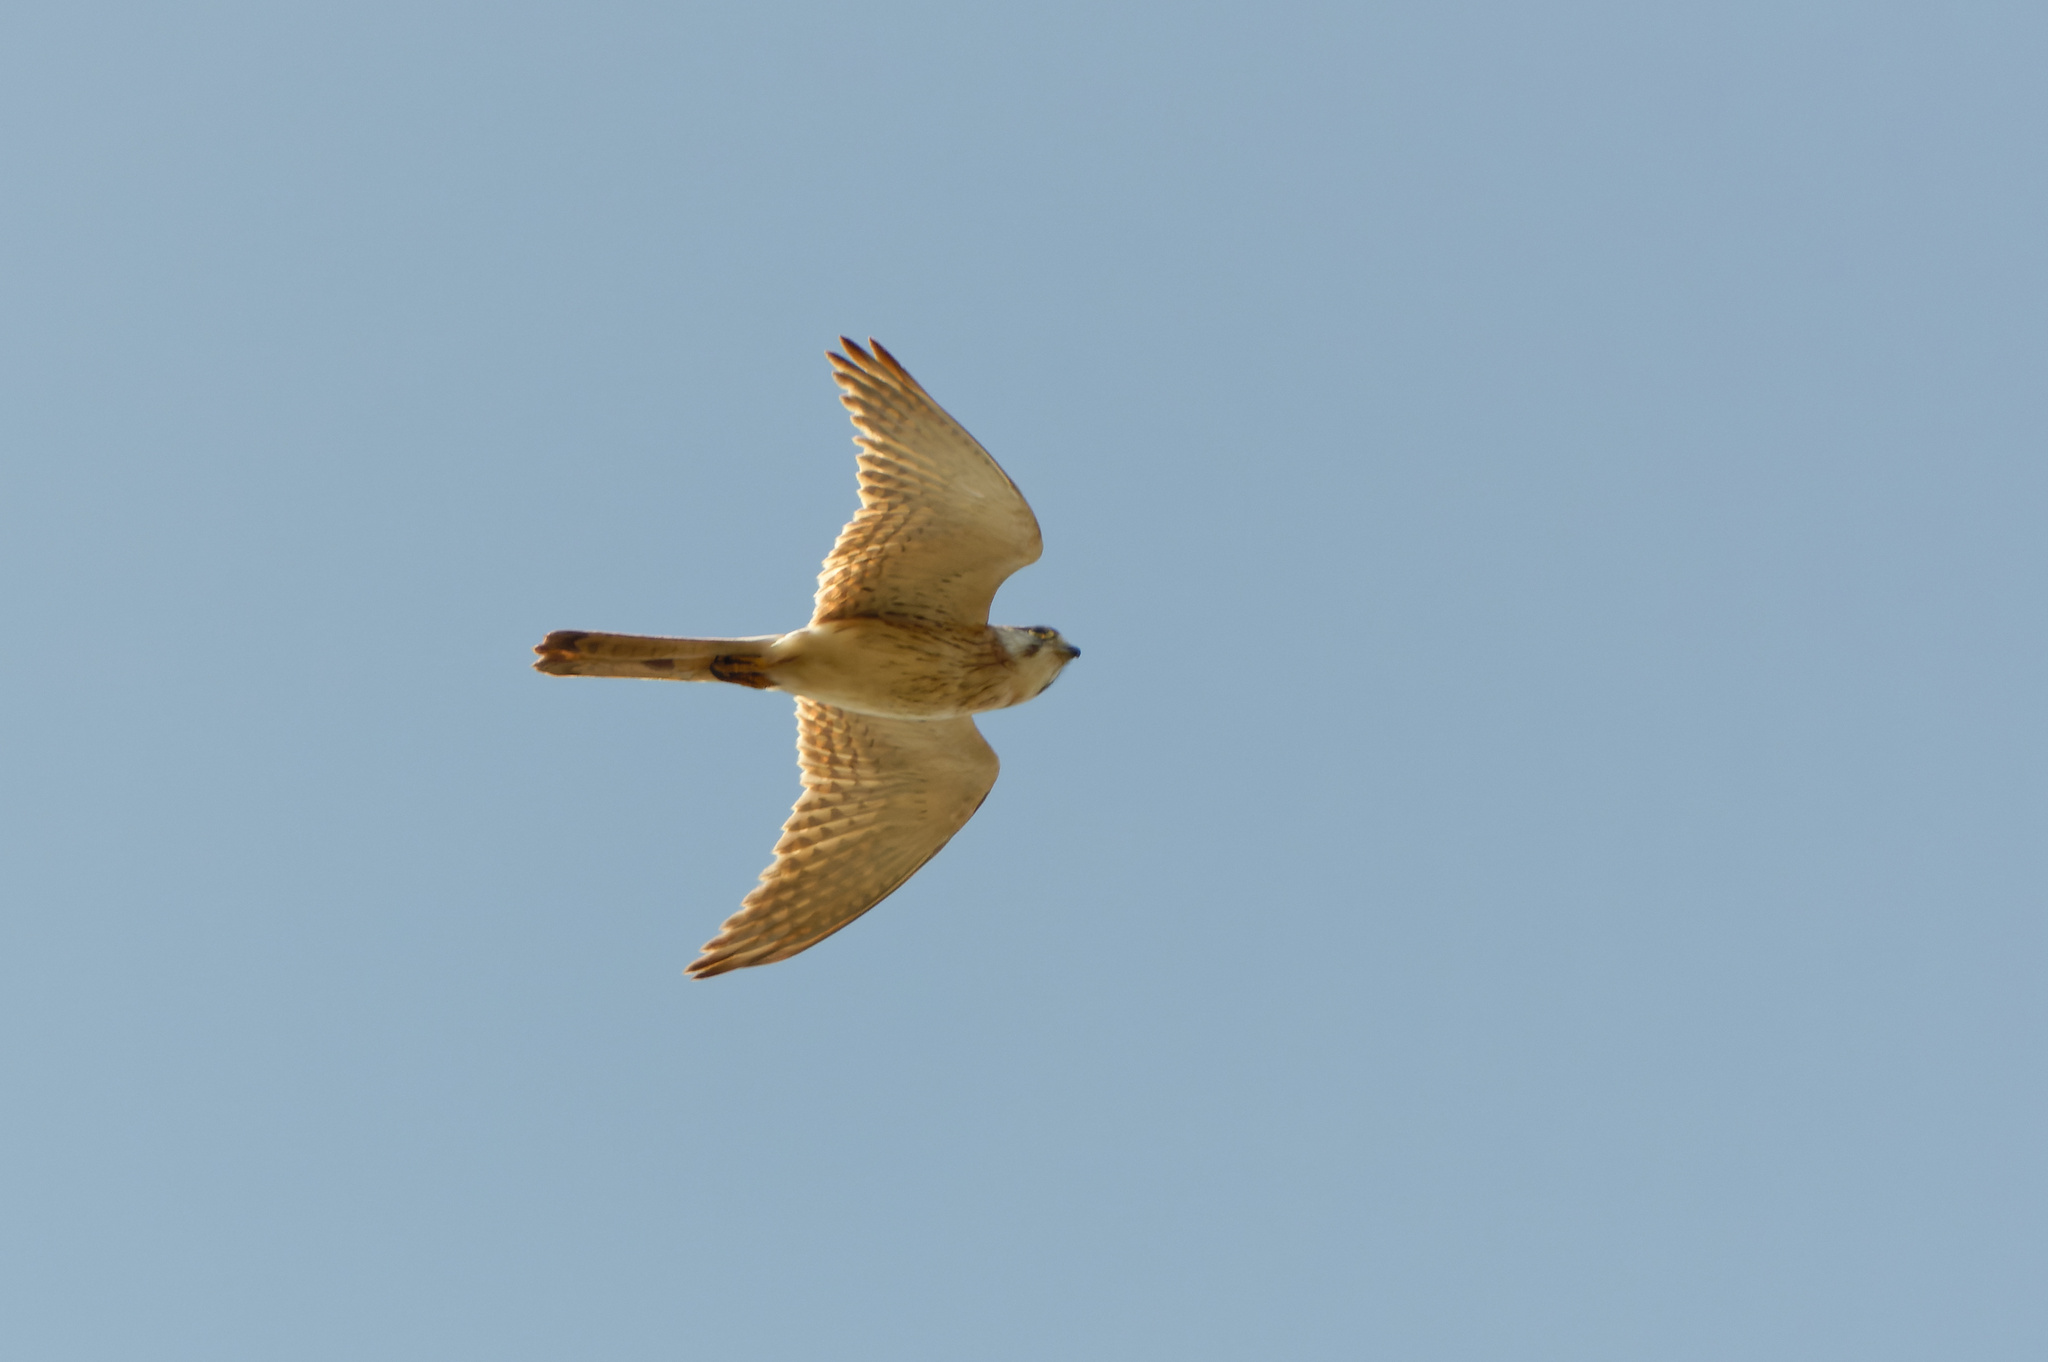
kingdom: Animalia
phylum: Chordata
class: Aves
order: Falconiformes
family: Falconidae
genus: Falco
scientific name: Falco cenchroides
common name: Nankeen kestrel
